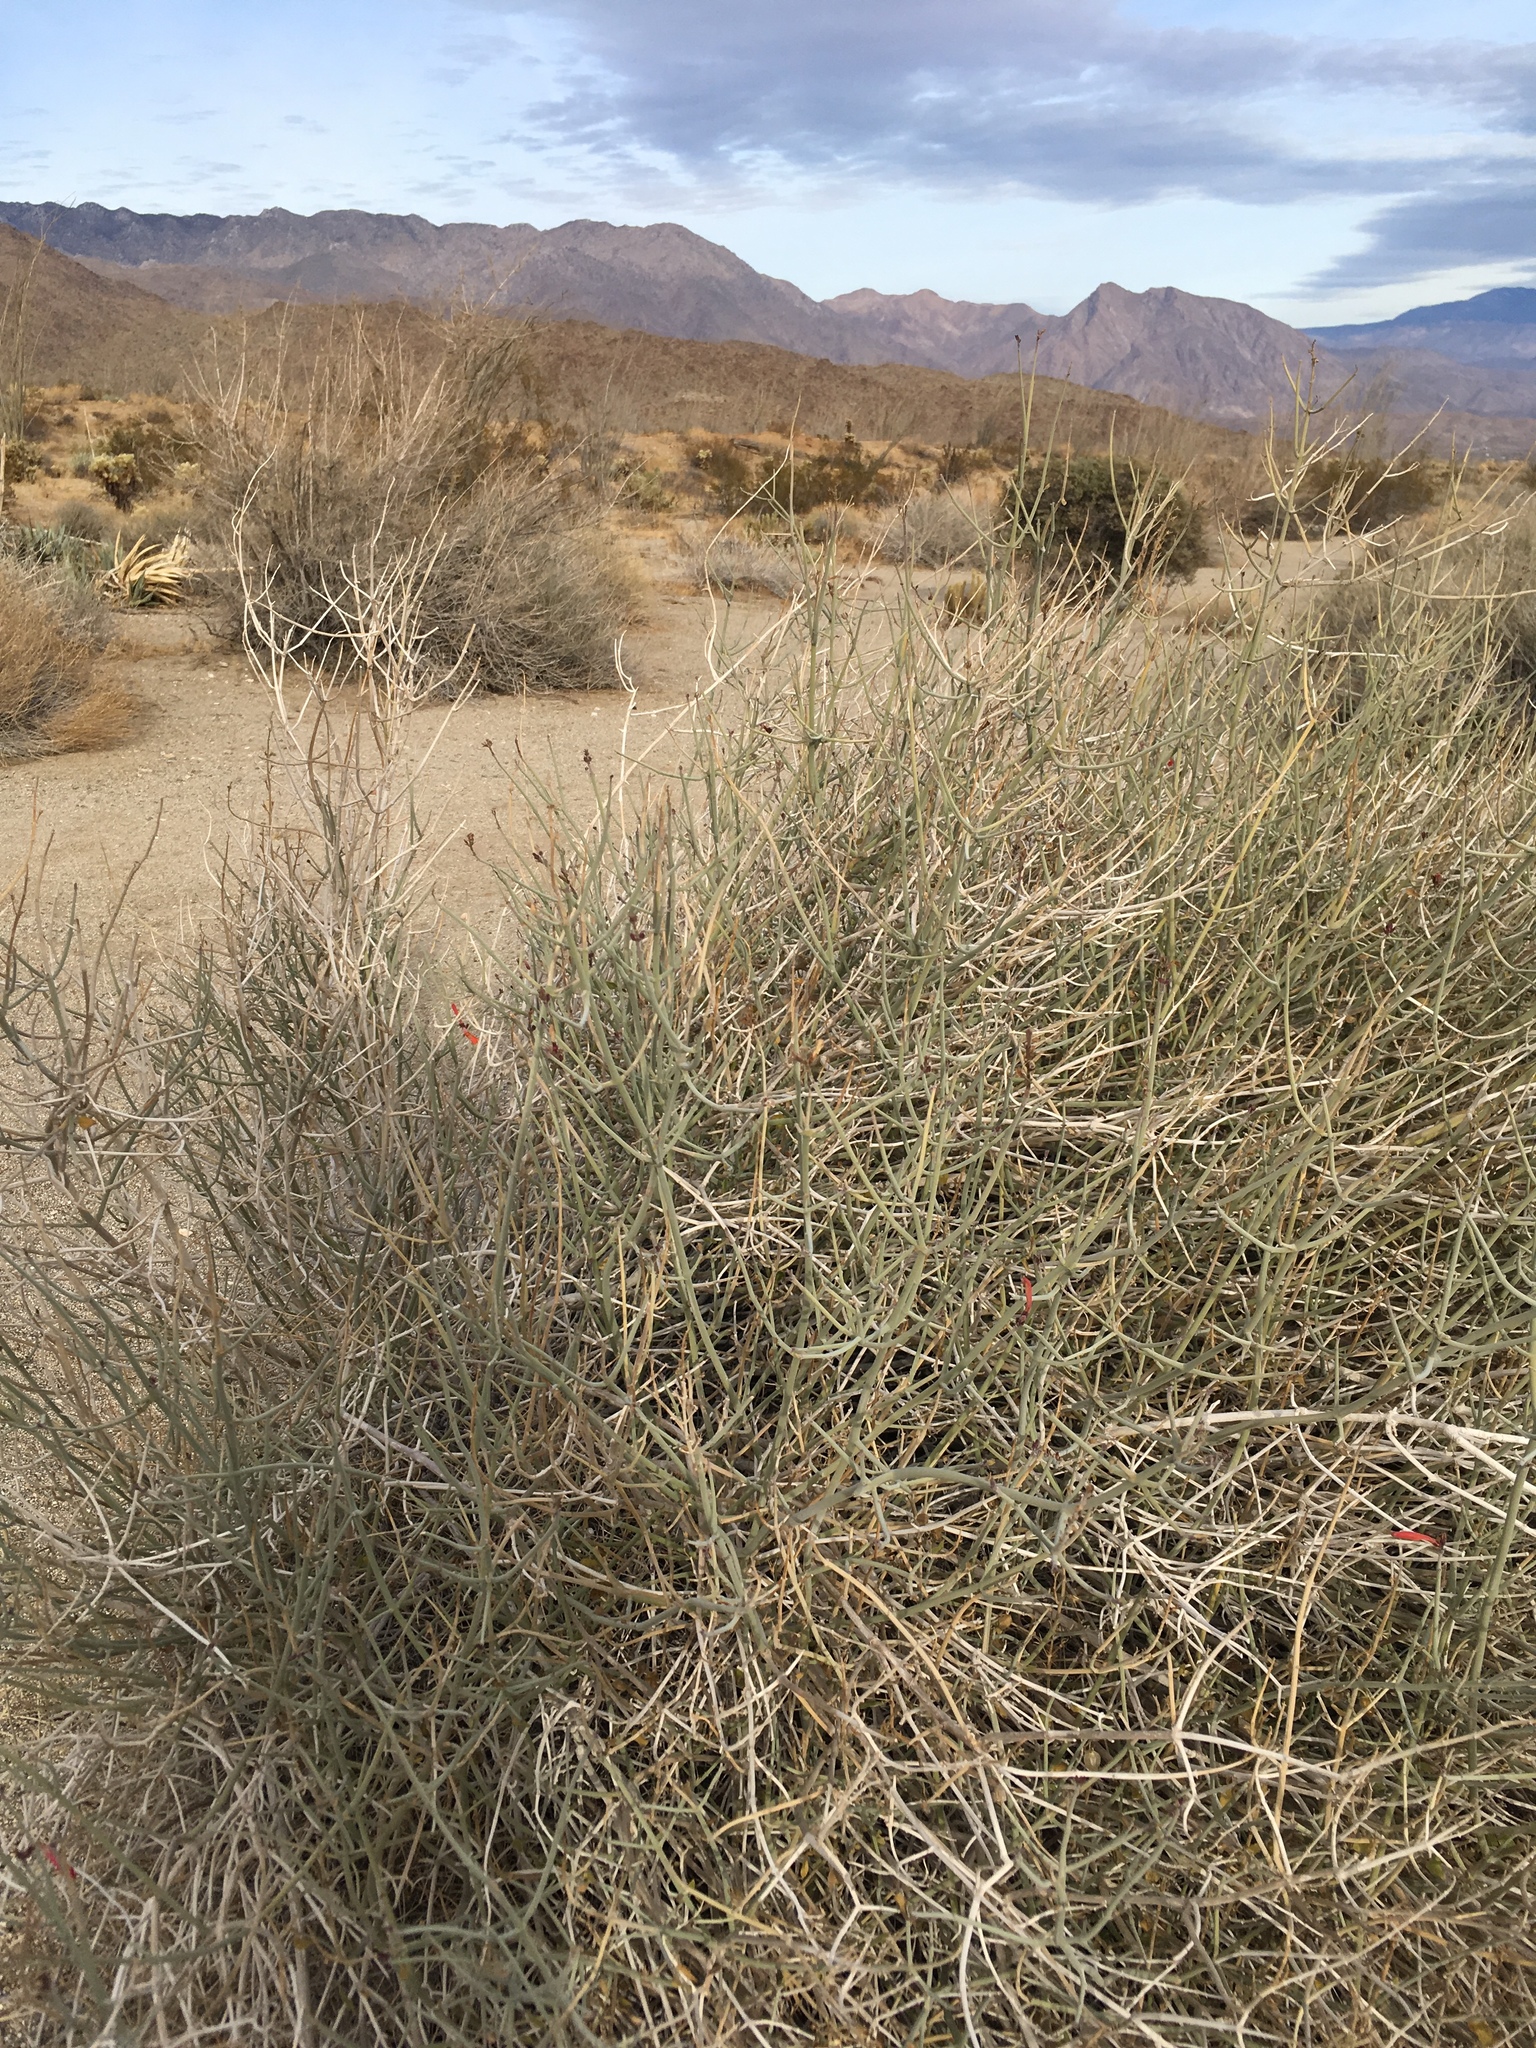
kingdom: Plantae
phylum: Tracheophyta
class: Magnoliopsida
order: Lamiales
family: Acanthaceae
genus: Justicia
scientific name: Justicia californica
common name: Chuparosa-honeysuckle
